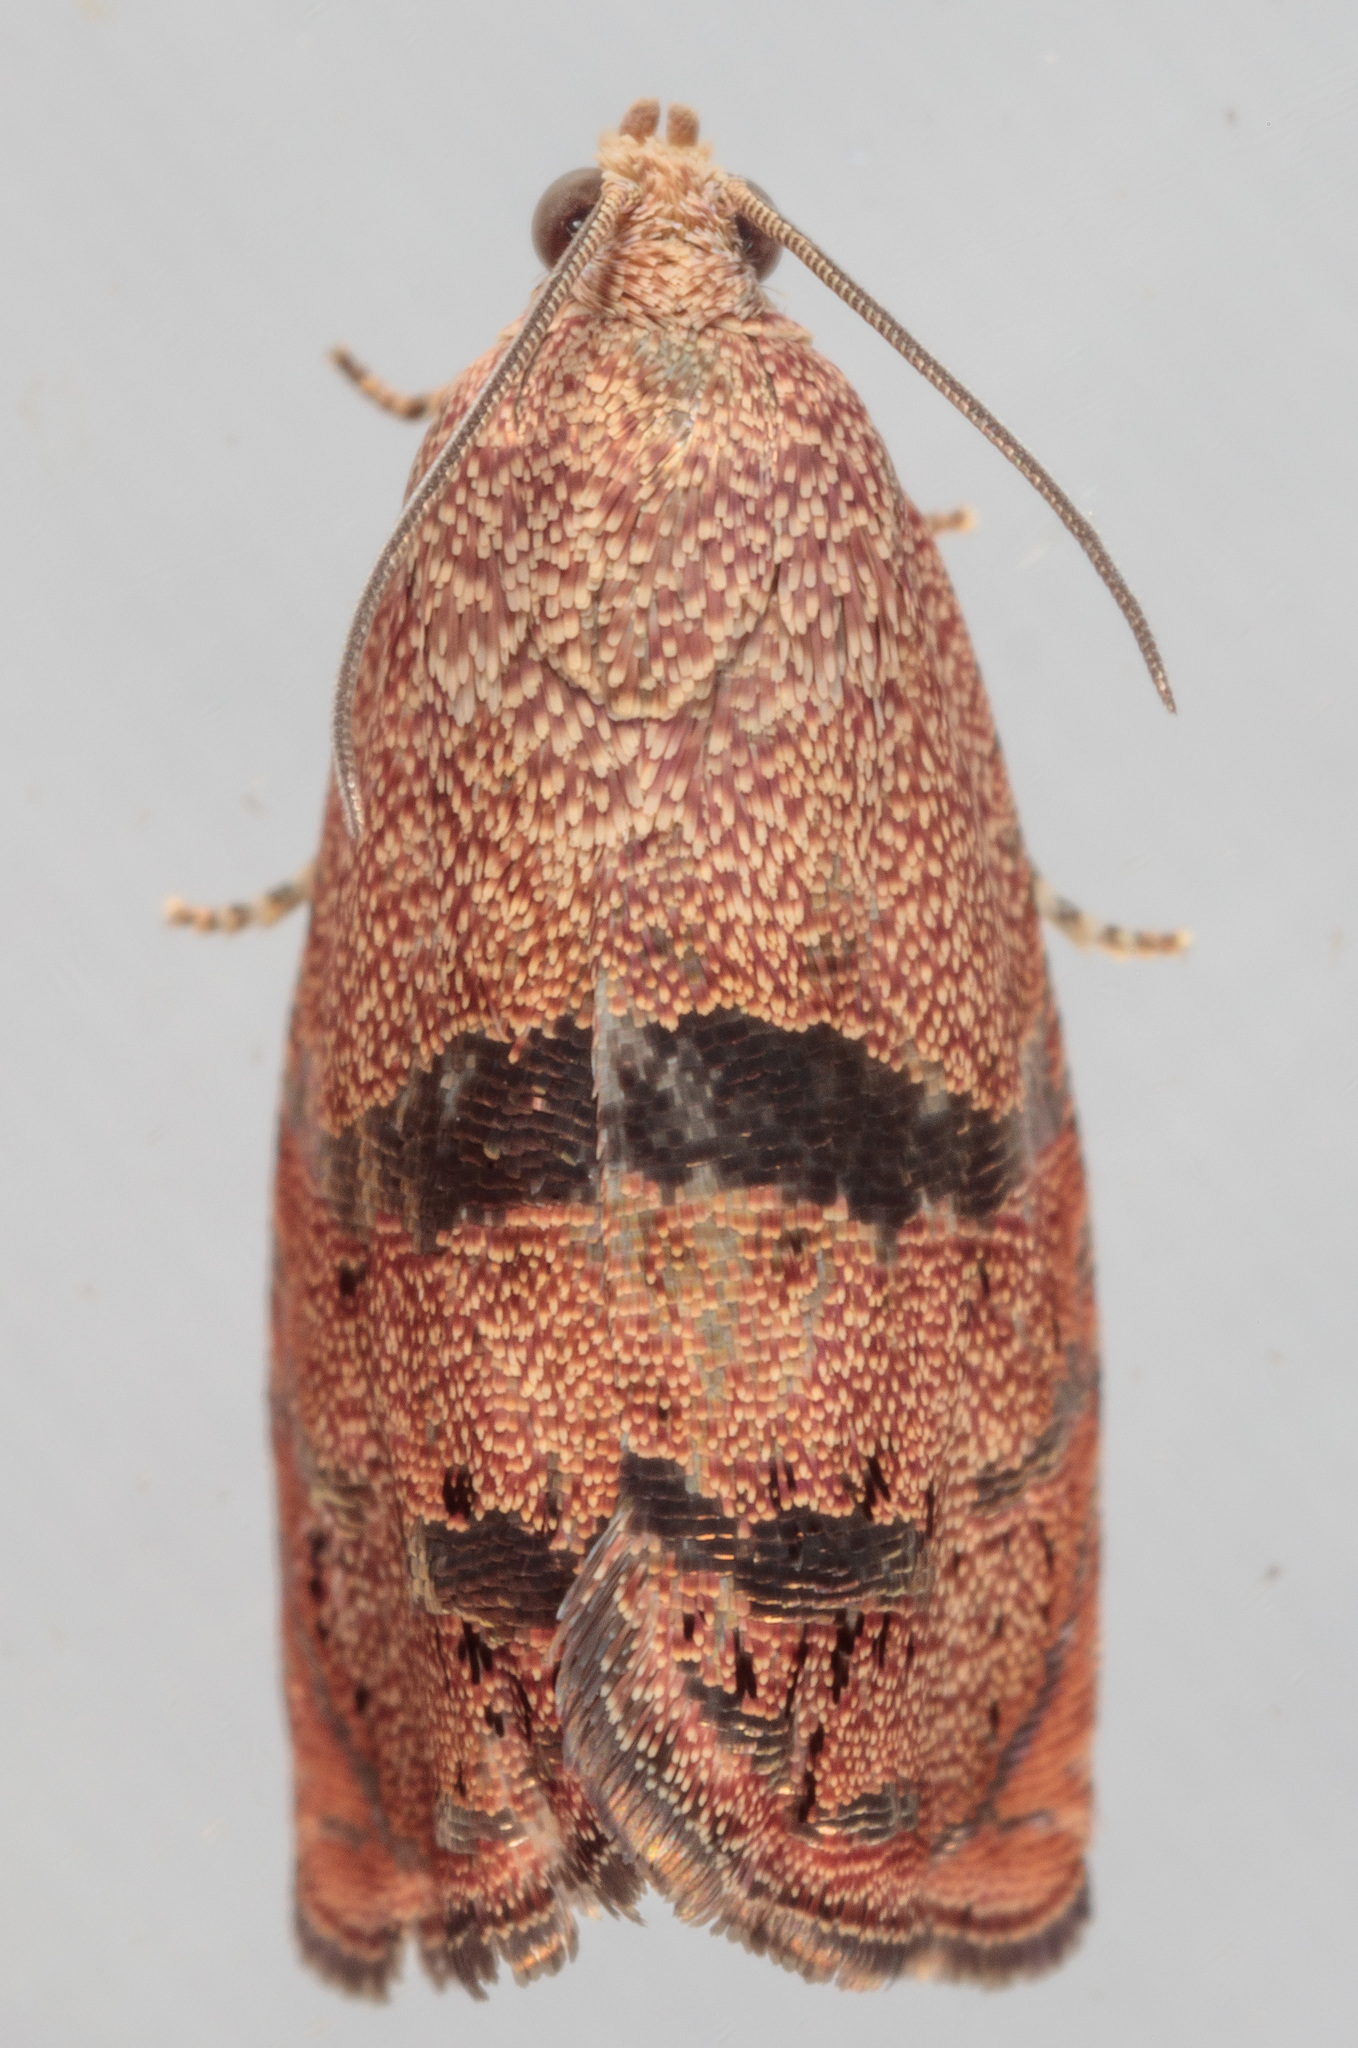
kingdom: Animalia
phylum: Arthropoda
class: Insecta
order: Lepidoptera
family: Tortricidae
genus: Cydia
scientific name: Cydia latiferreana
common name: Filbertworm moth
